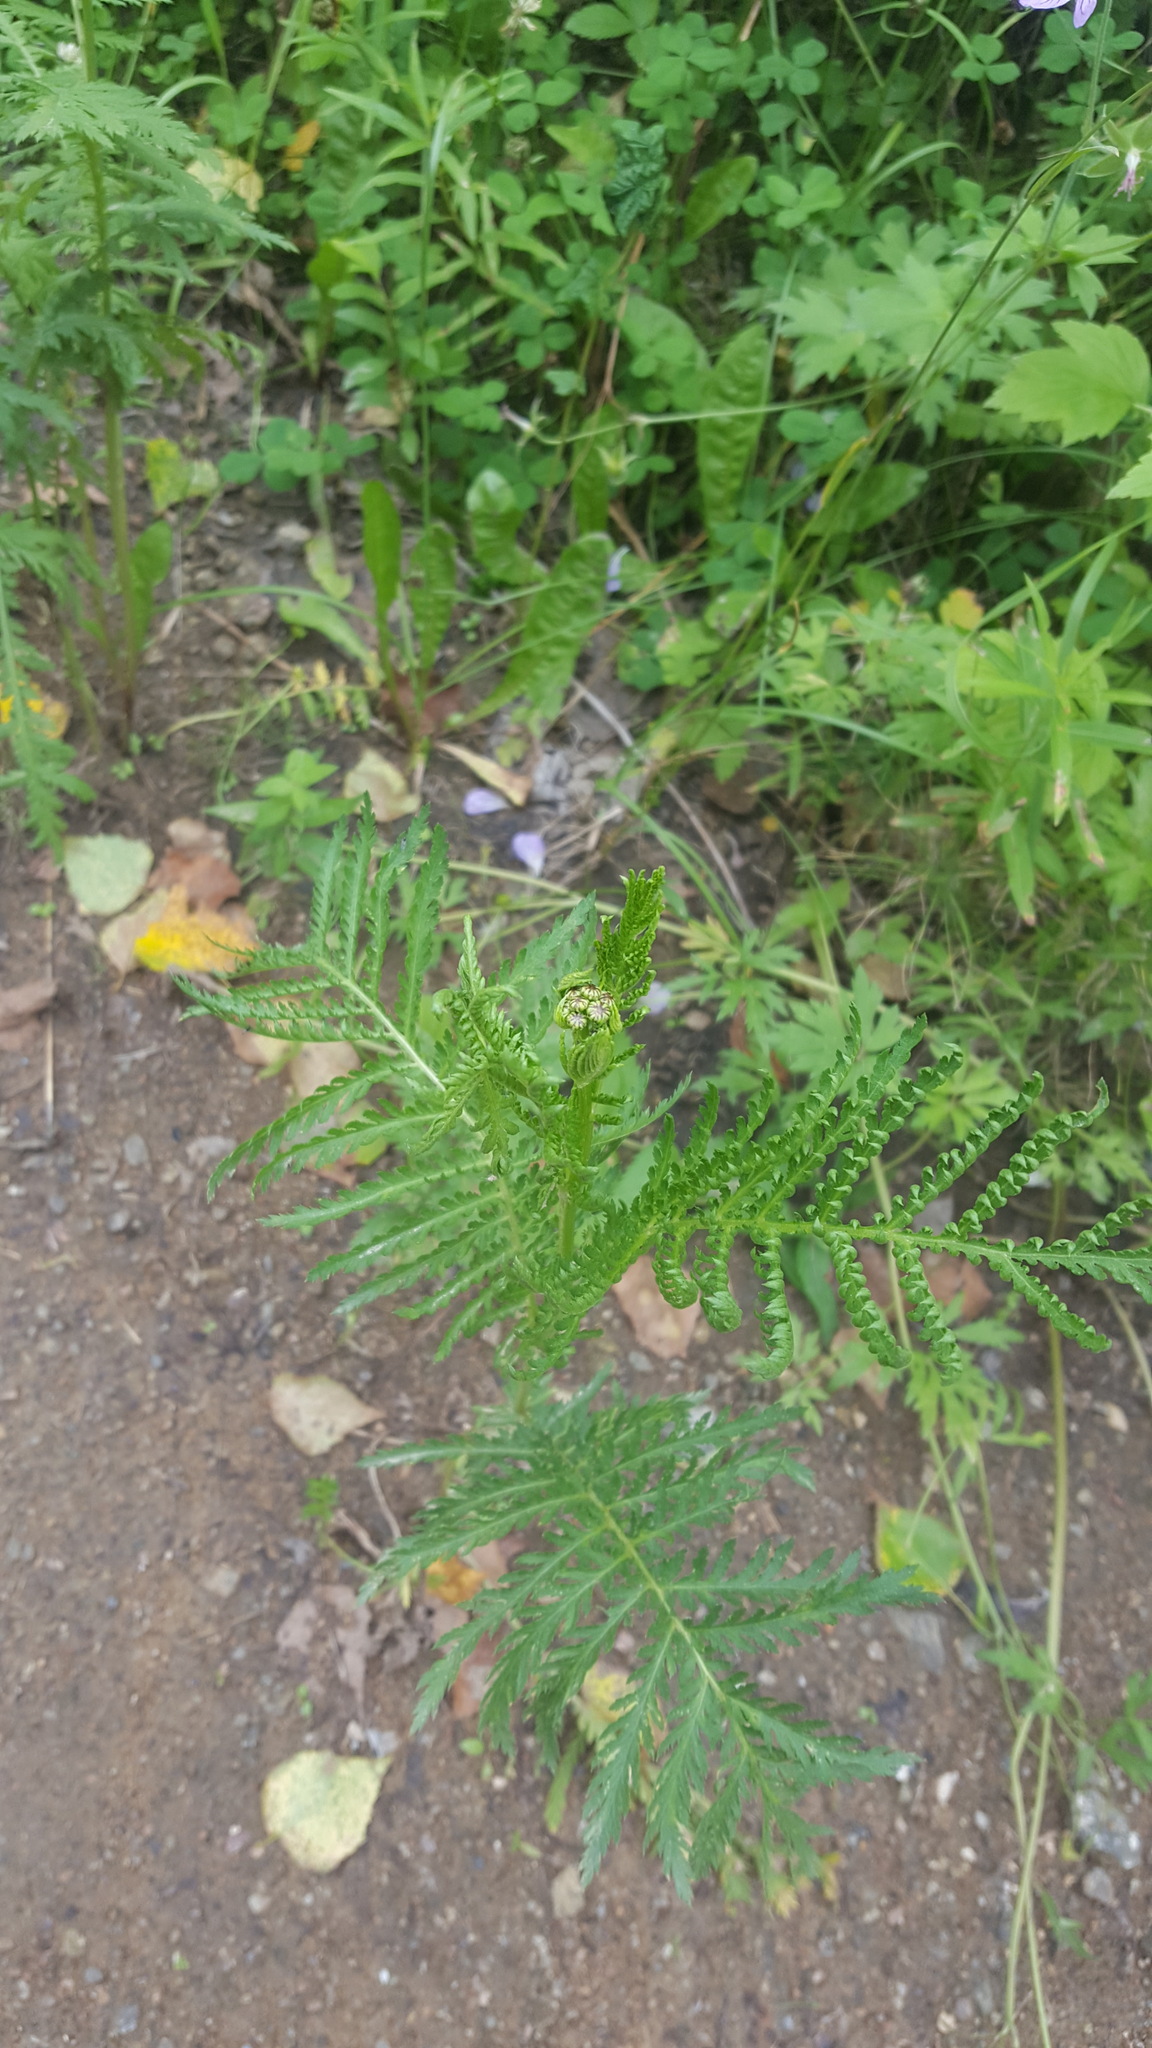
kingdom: Plantae
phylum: Tracheophyta
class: Magnoliopsida
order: Asterales
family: Asteraceae
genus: Tanacetum
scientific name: Tanacetum vulgare
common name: Common tansy
